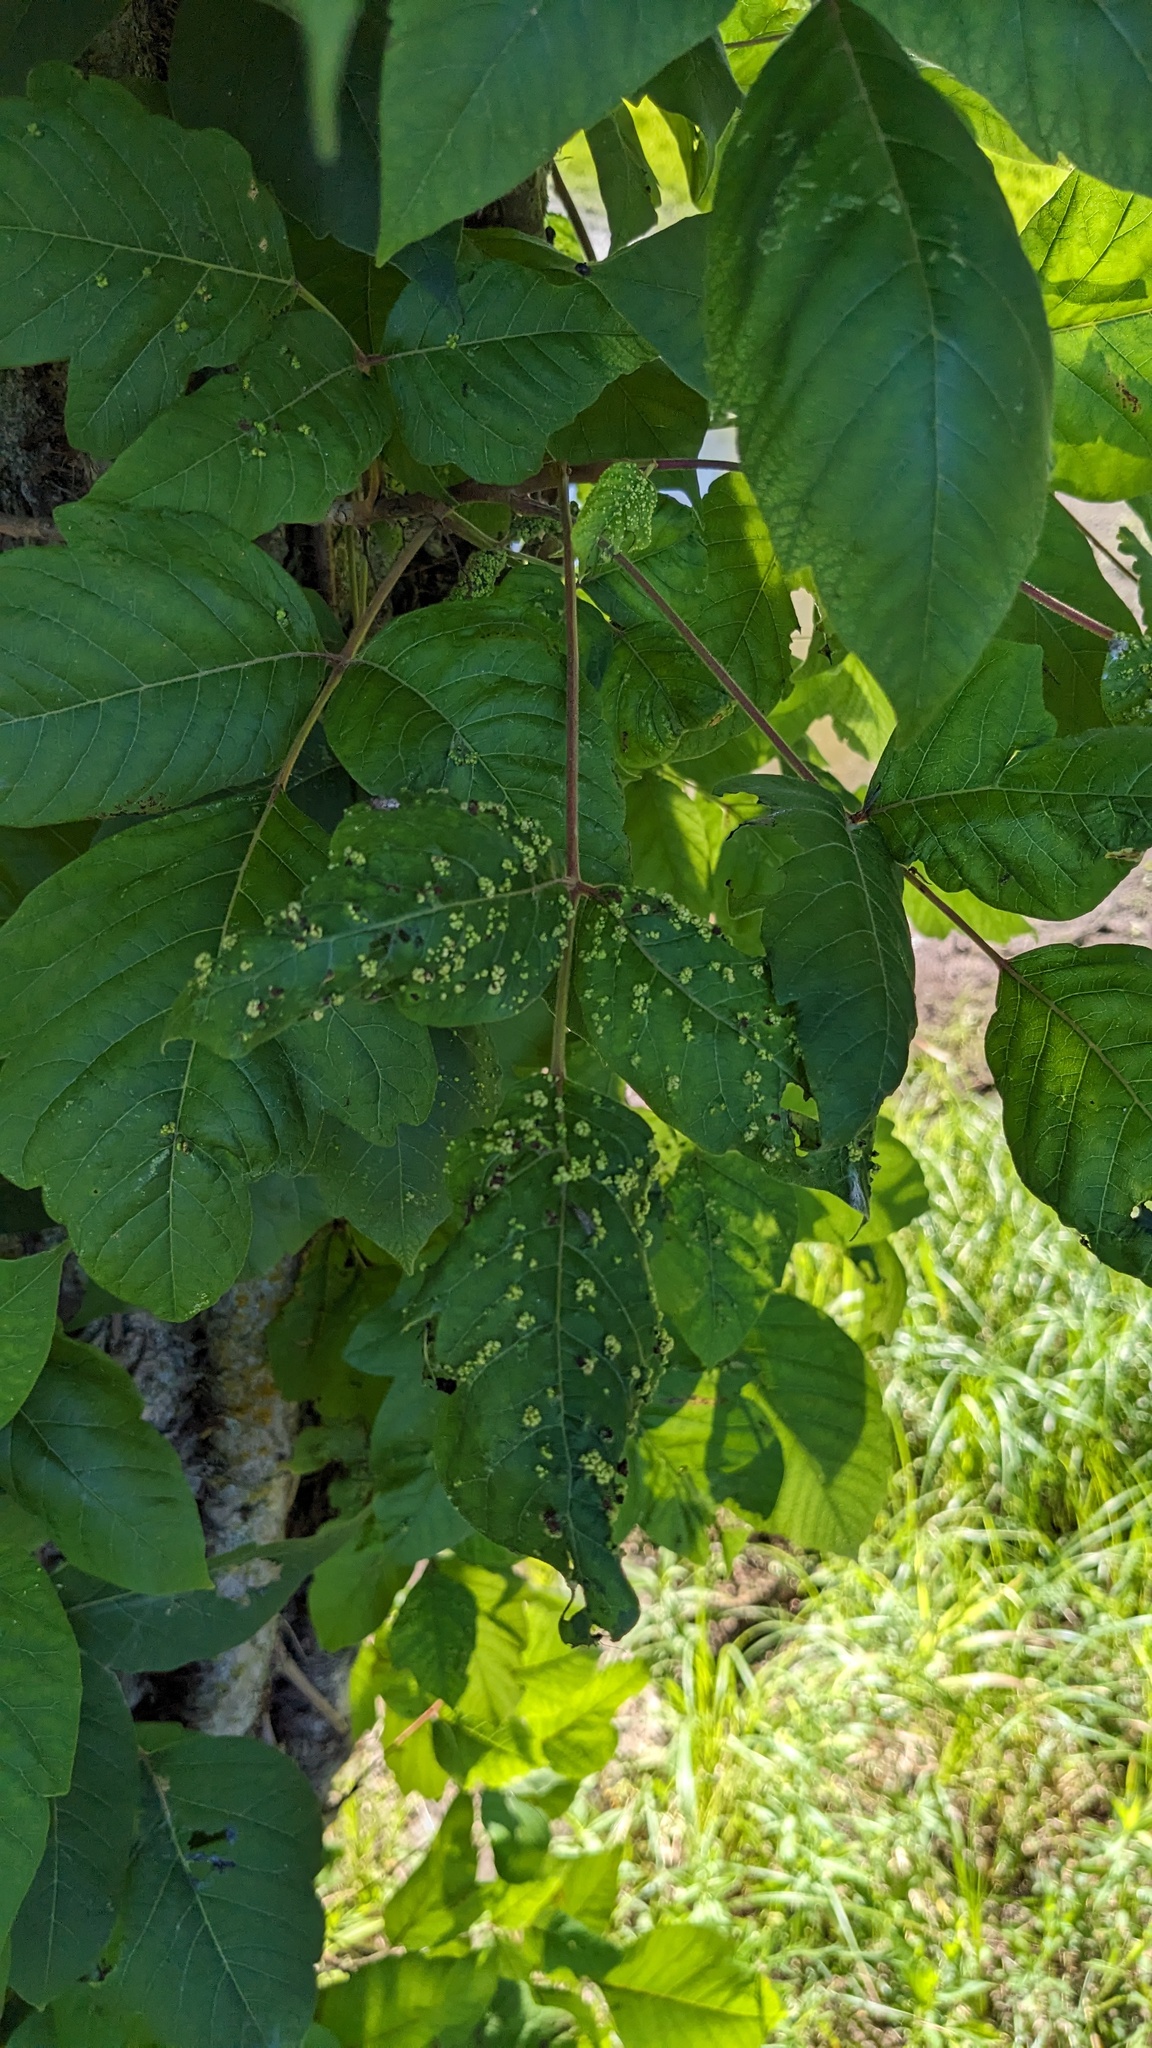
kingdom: Animalia
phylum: Arthropoda
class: Arachnida
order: Trombidiformes
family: Eriophyidae
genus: Aculops
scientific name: Aculops
